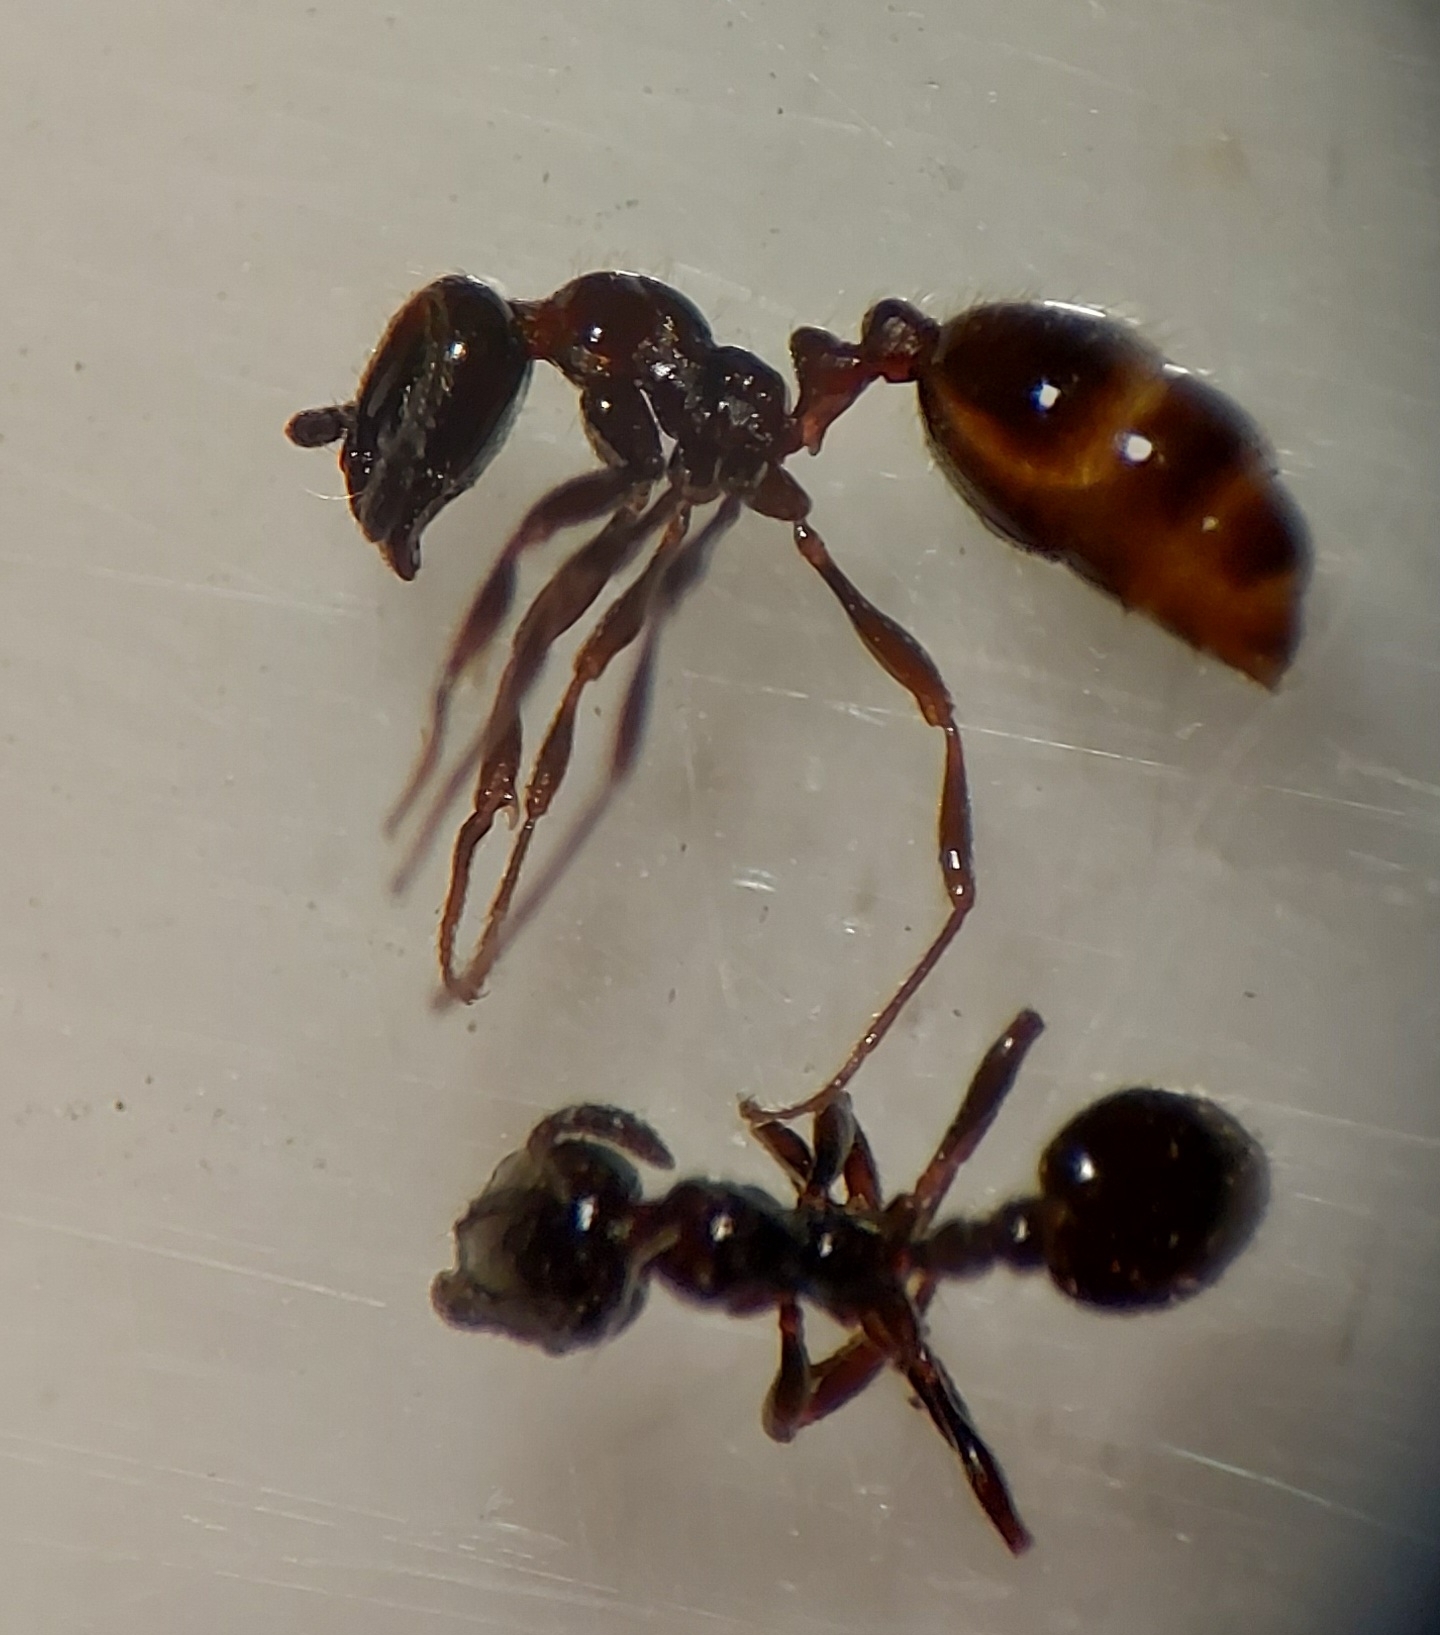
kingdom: Animalia
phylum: Arthropoda
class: Insecta
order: Hymenoptera
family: Formicidae
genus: Monomorium
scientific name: Monomorium antarcticum
